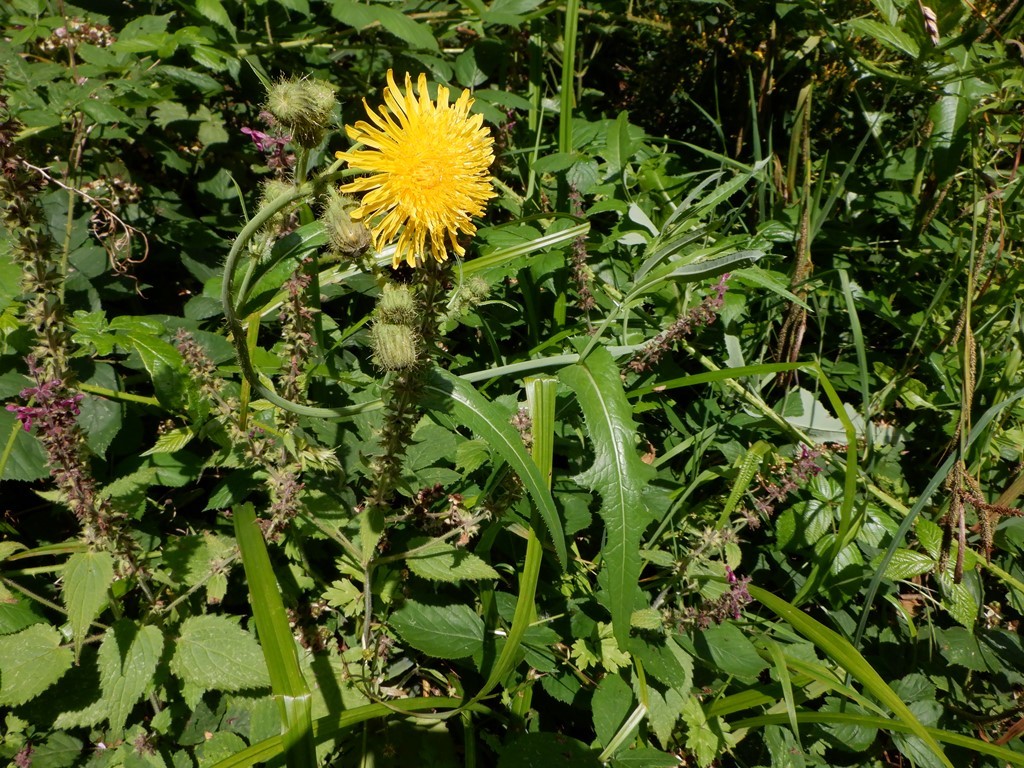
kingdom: Plantae
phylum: Tracheophyta
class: Magnoliopsida
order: Asterales
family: Asteraceae
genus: Sonchus
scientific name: Sonchus arvensis
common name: Perennial sow-thistle
